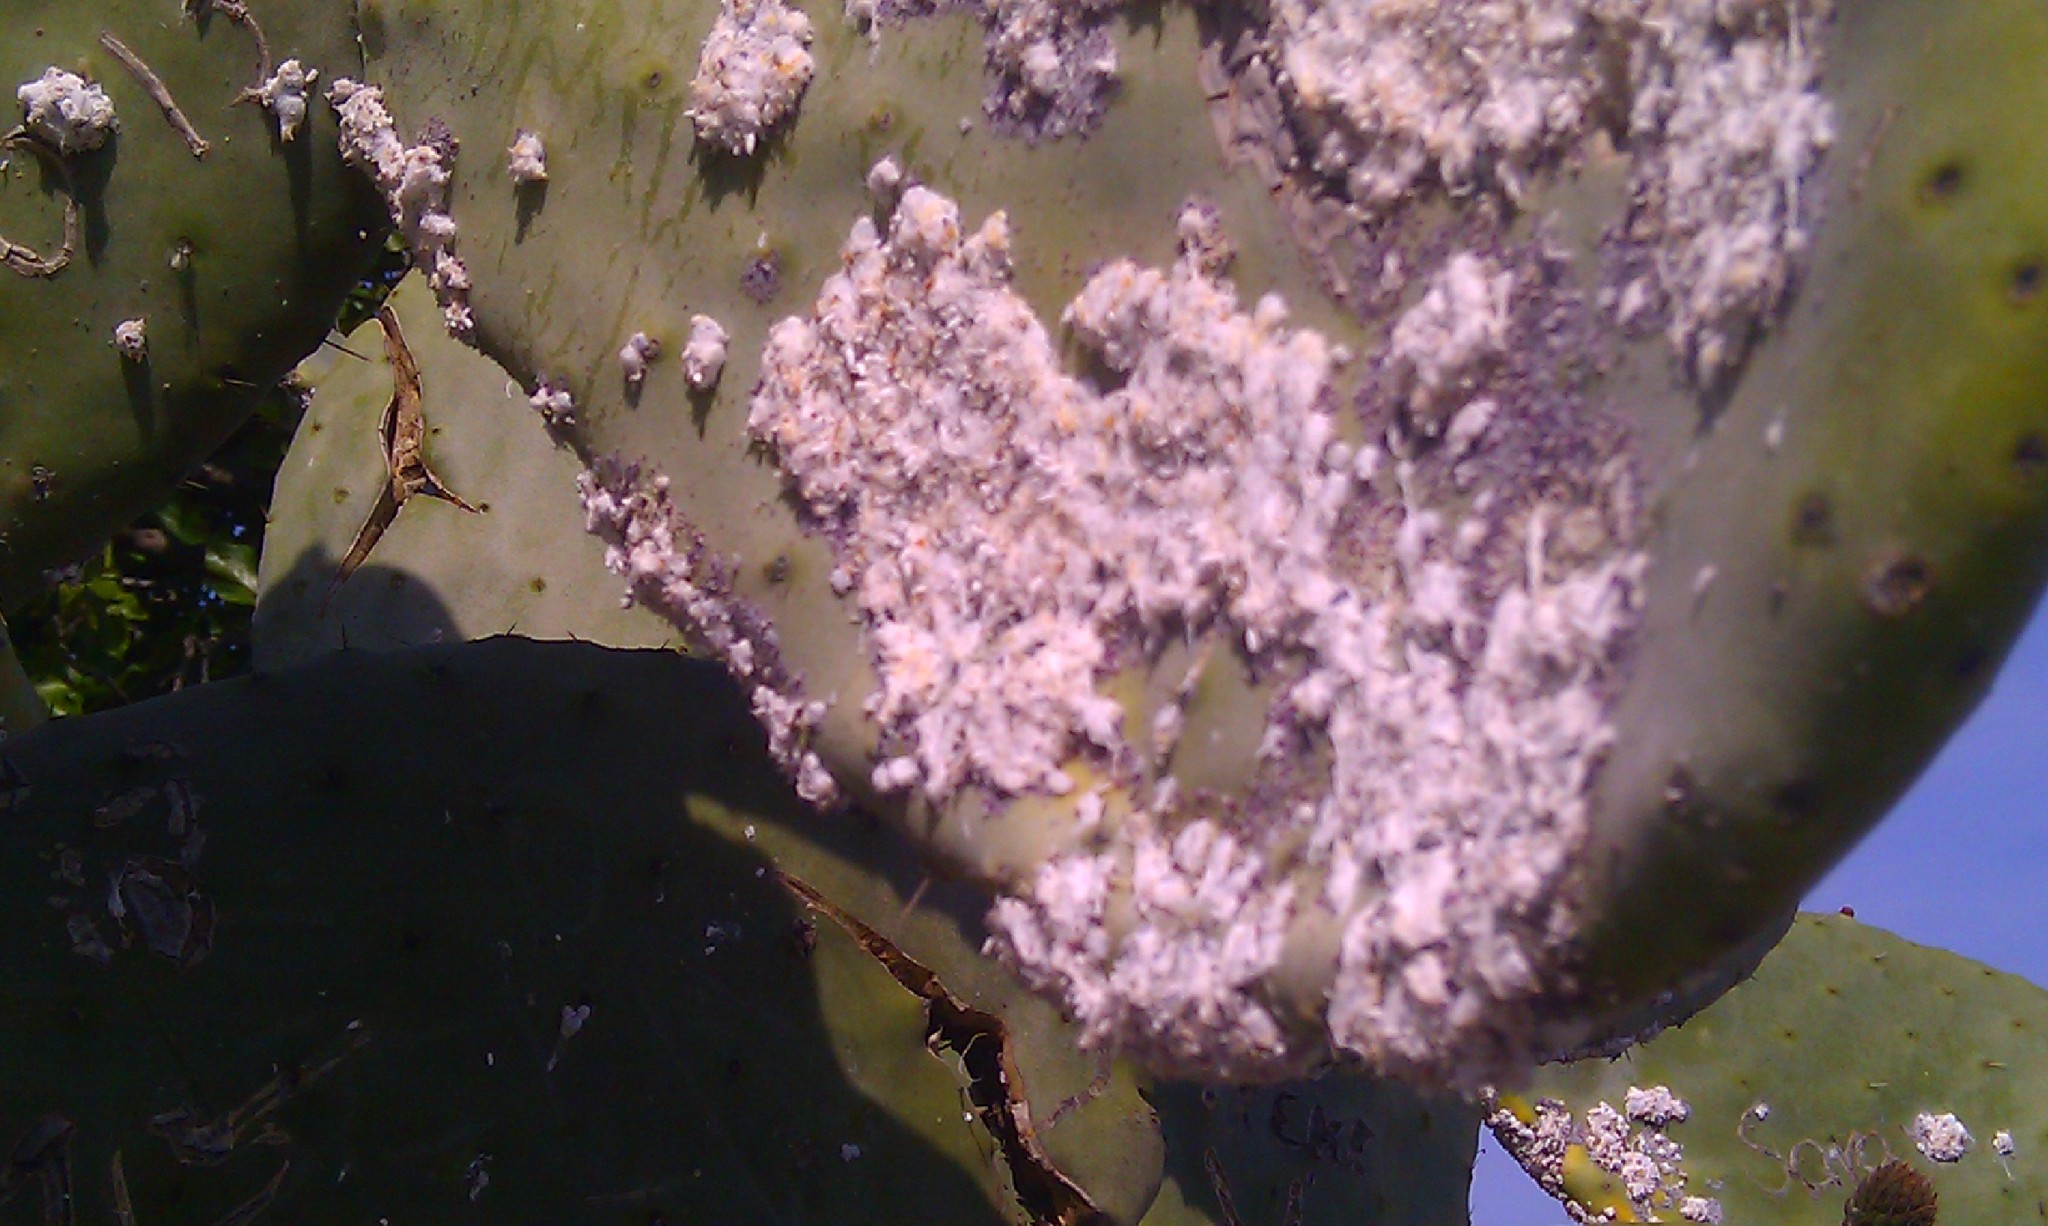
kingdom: Animalia
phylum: Arthropoda
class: Insecta
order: Hemiptera
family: Dactylopiidae
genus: Dactylopius
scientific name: Dactylopius opuntiae
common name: Opuntia cochineal scale
